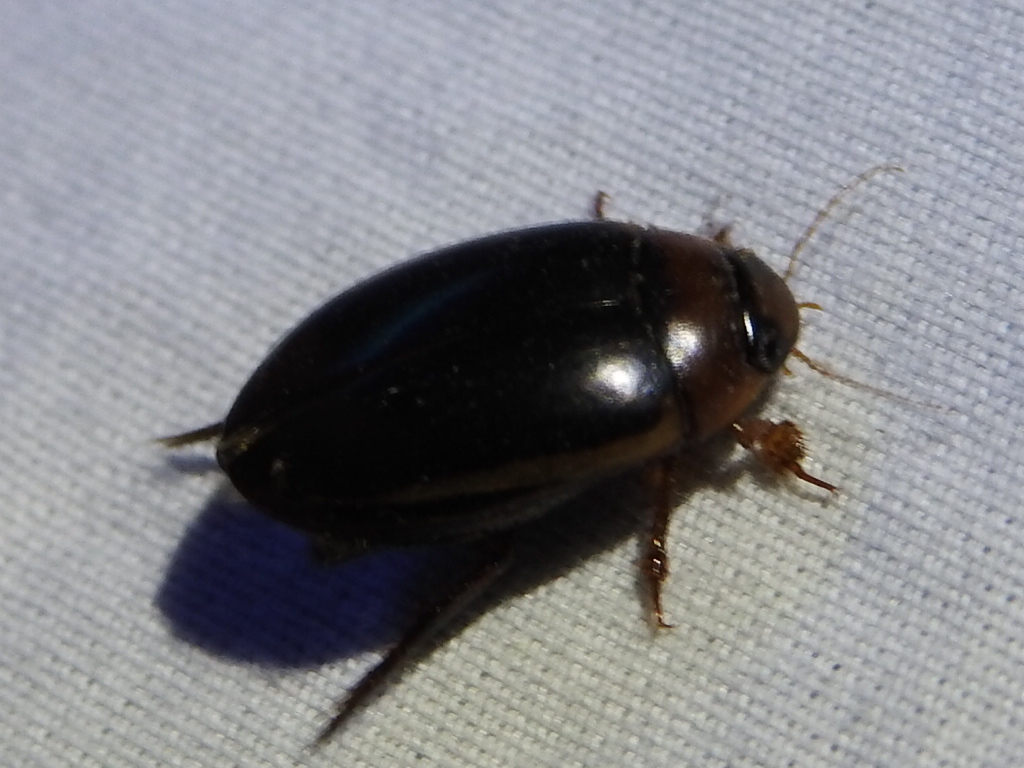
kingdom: Animalia
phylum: Arthropoda
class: Insecta
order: Coleoptera
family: Dytiscidae
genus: Hydaticus
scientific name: Hydaticus bimarginatus
